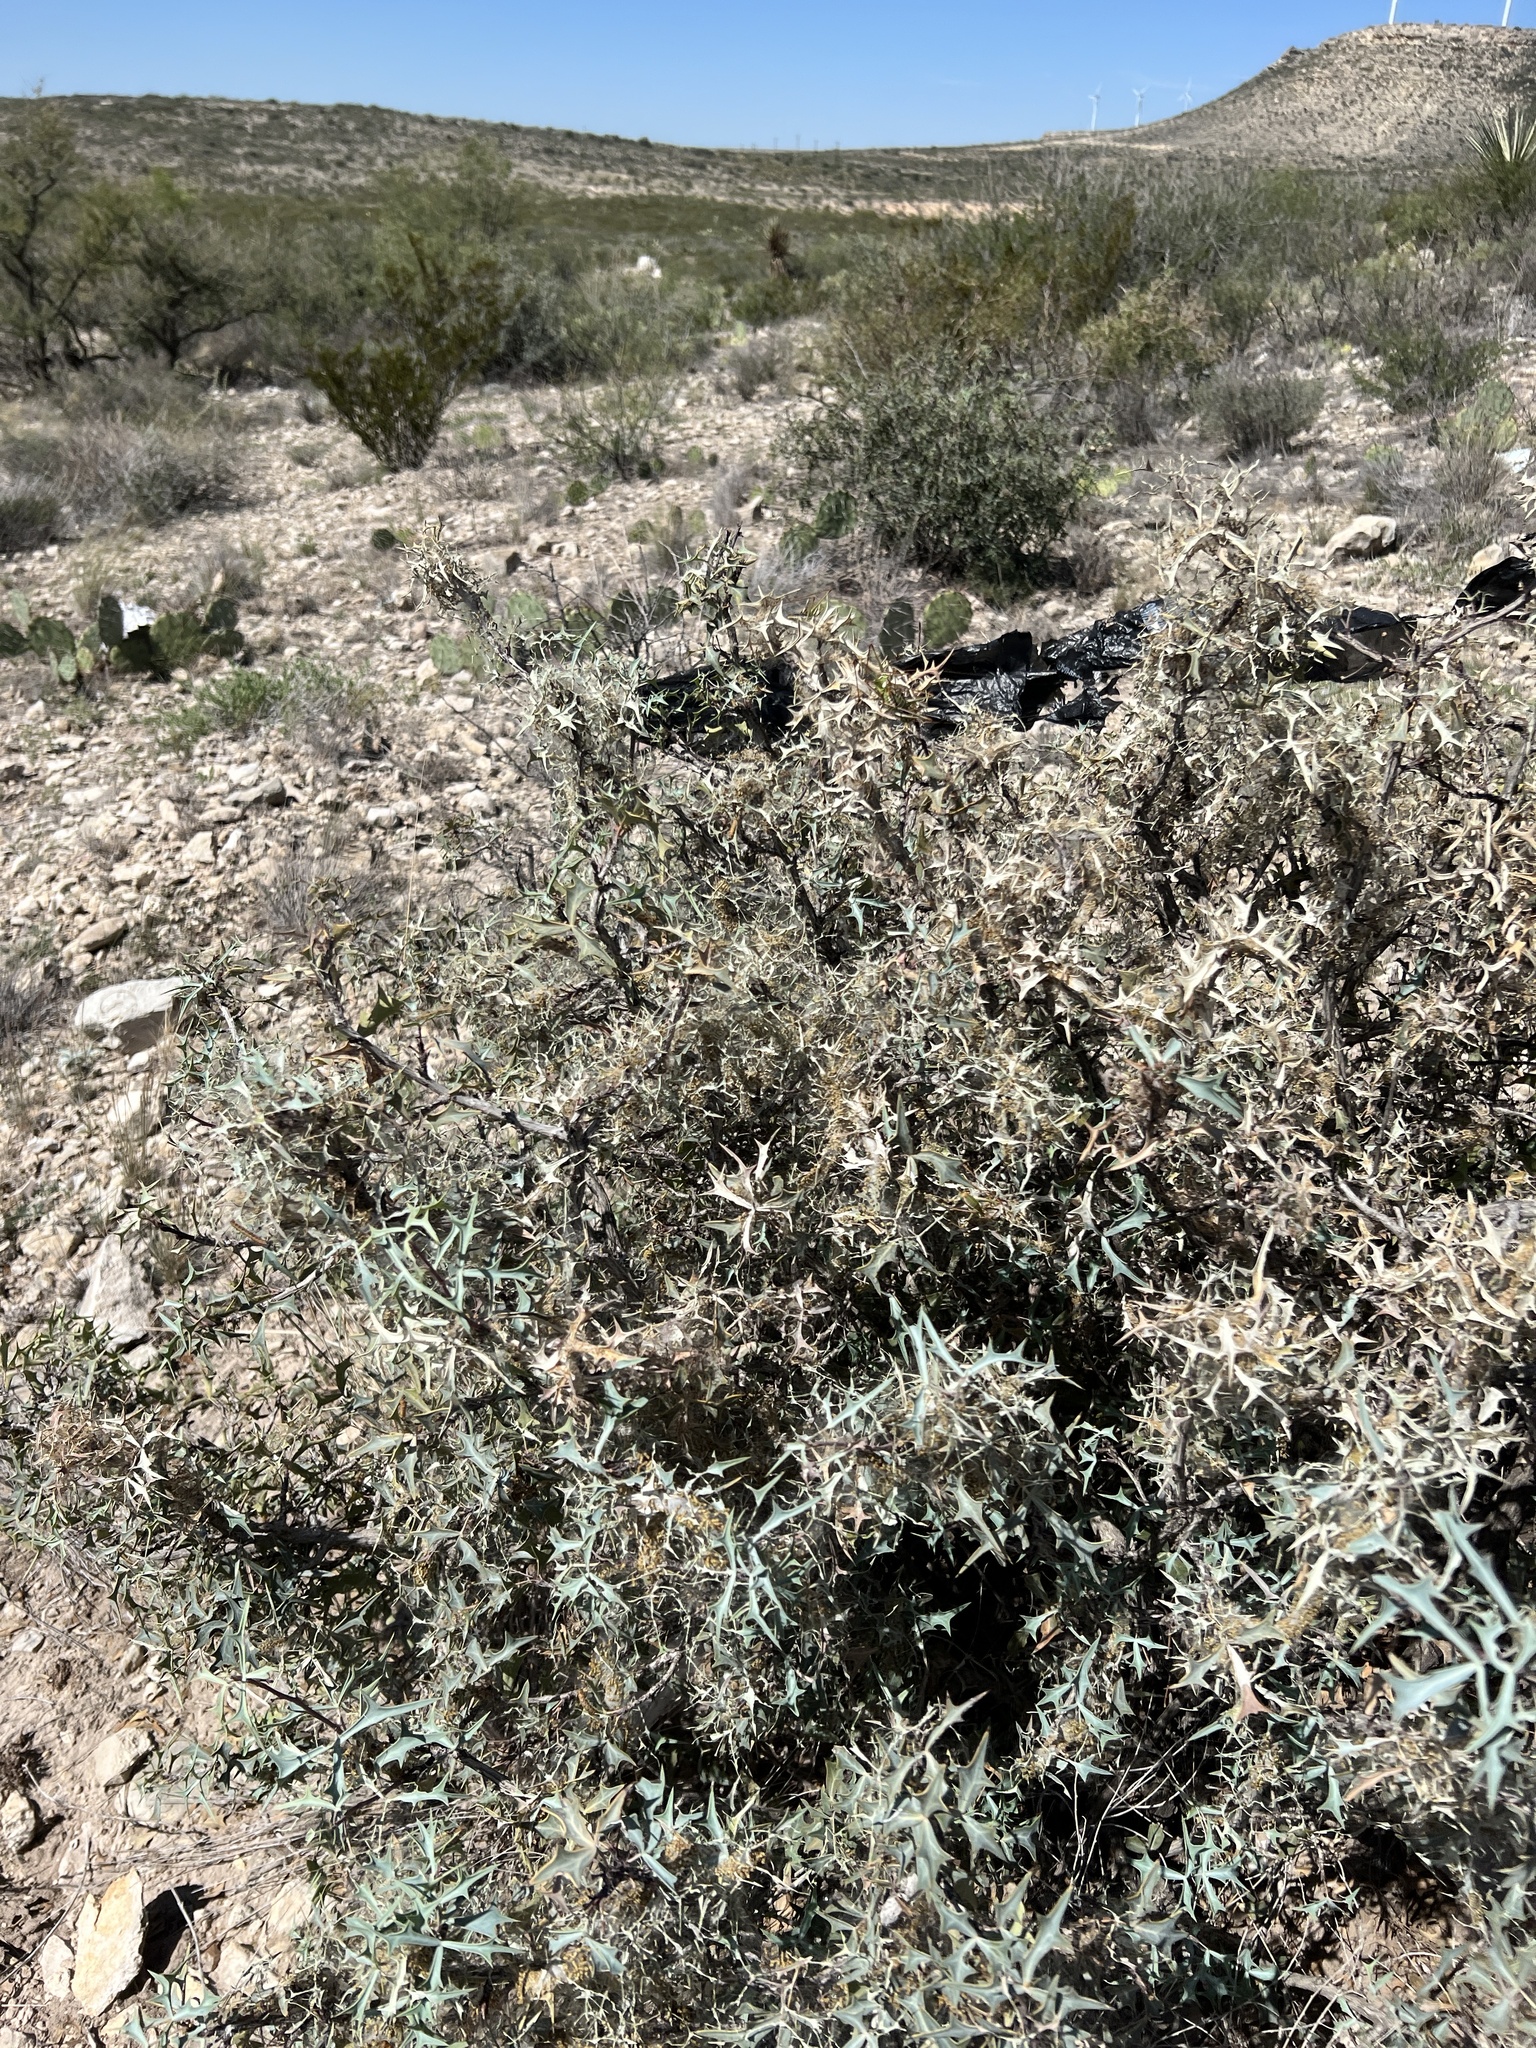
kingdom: Plantae
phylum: Tracheophyta
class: Magnoliopsida
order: Ranunculales
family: Berberidaceae
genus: Alloberberis
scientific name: Alloberberis trifoliolata
